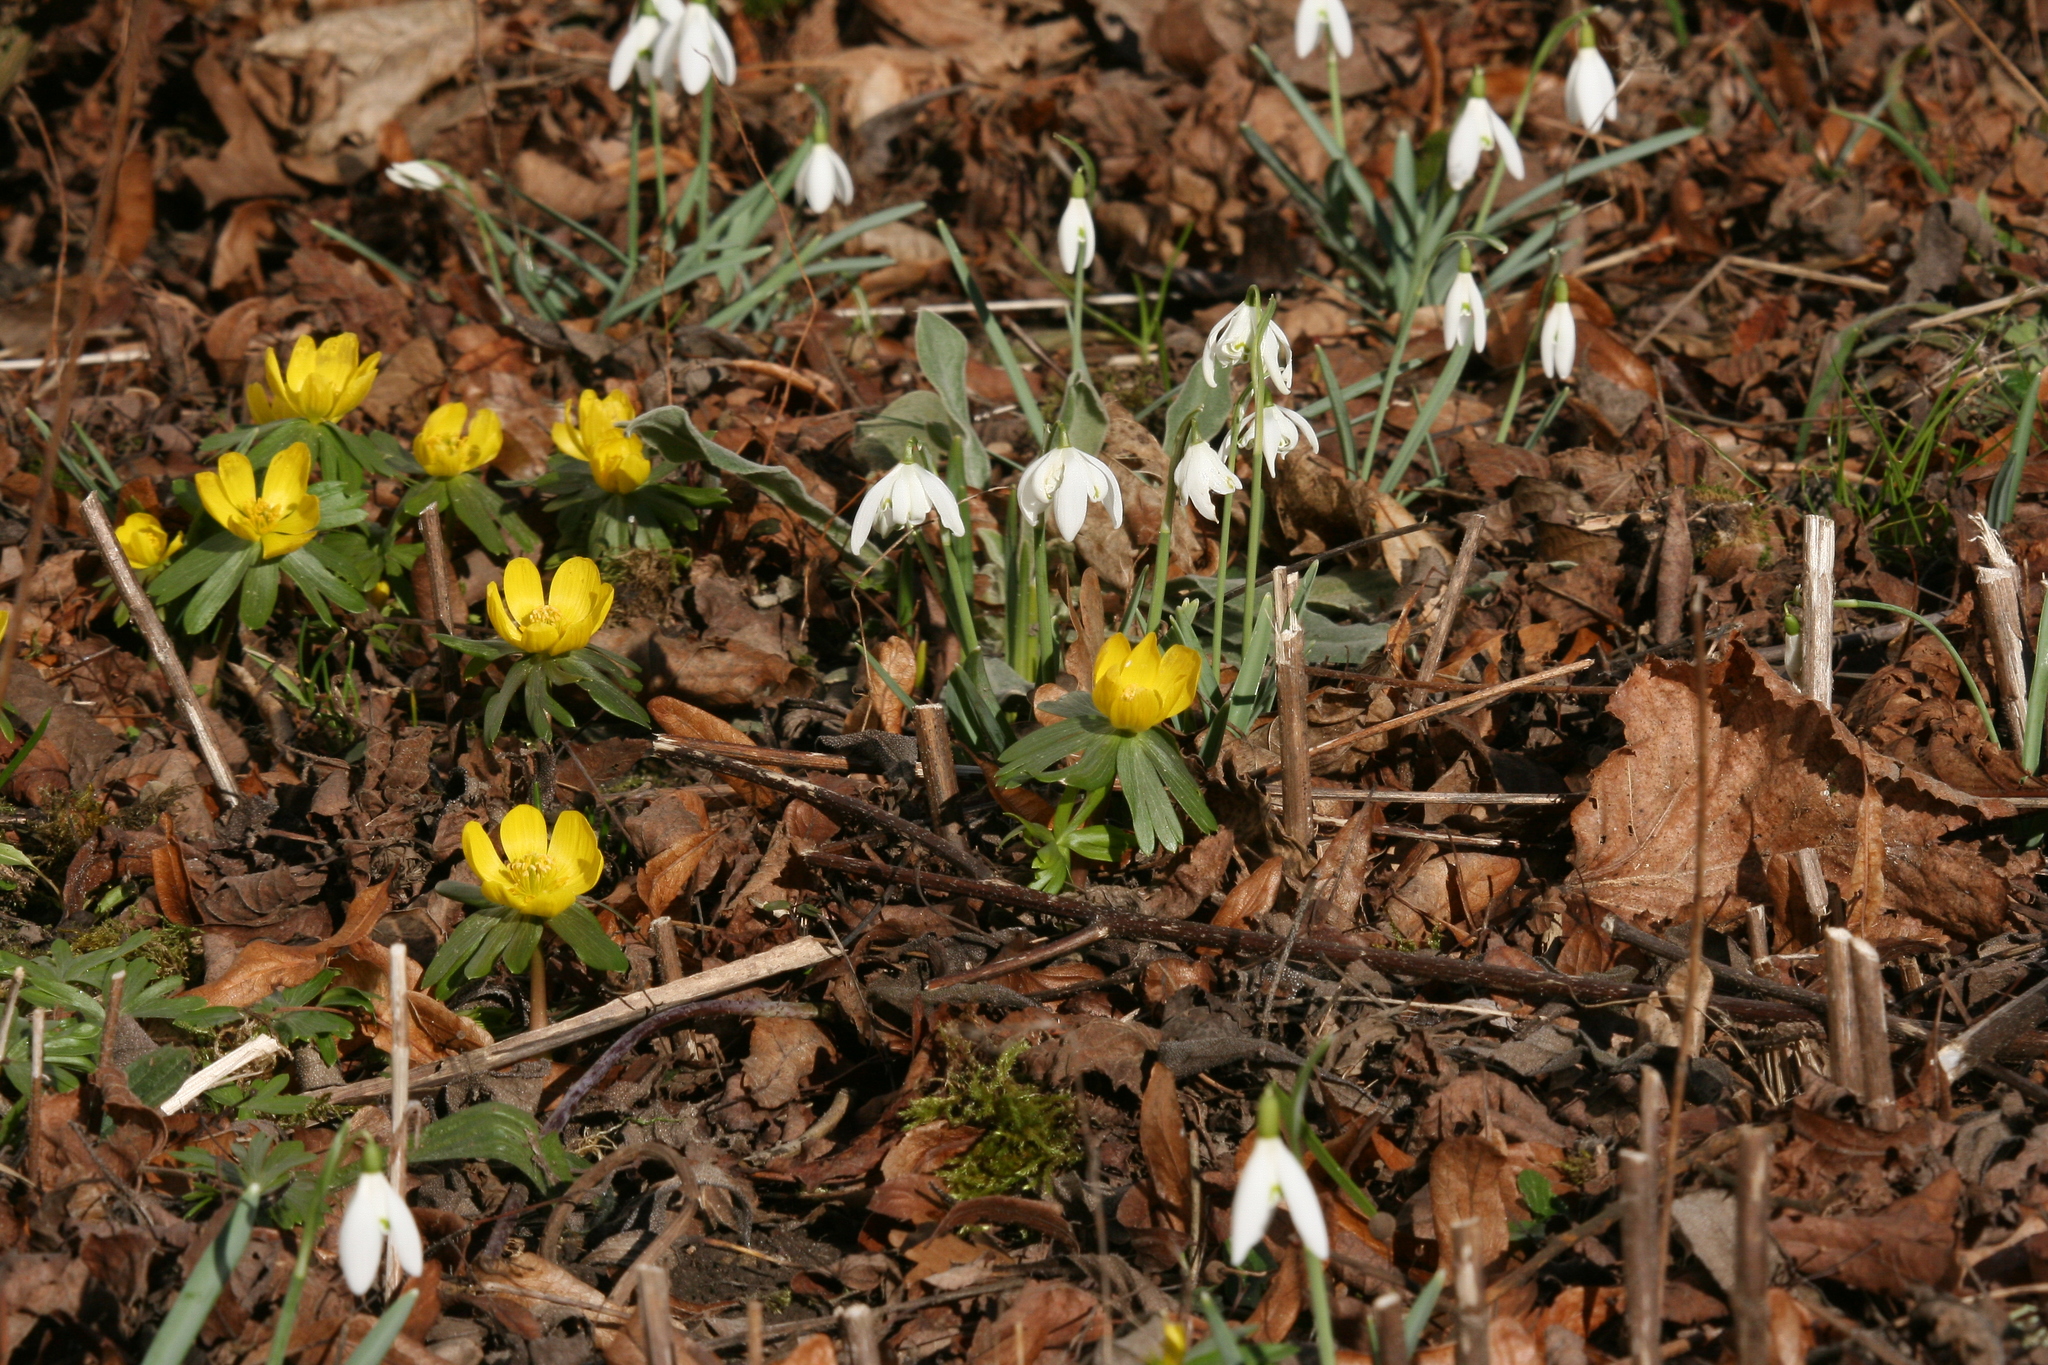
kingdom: Plantae
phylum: Tracheophyta
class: Magnoliopsida
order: Ranunculales
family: Ranunculaceae
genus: Eranthis
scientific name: Eranthis hyemalis
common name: Winter aconite
